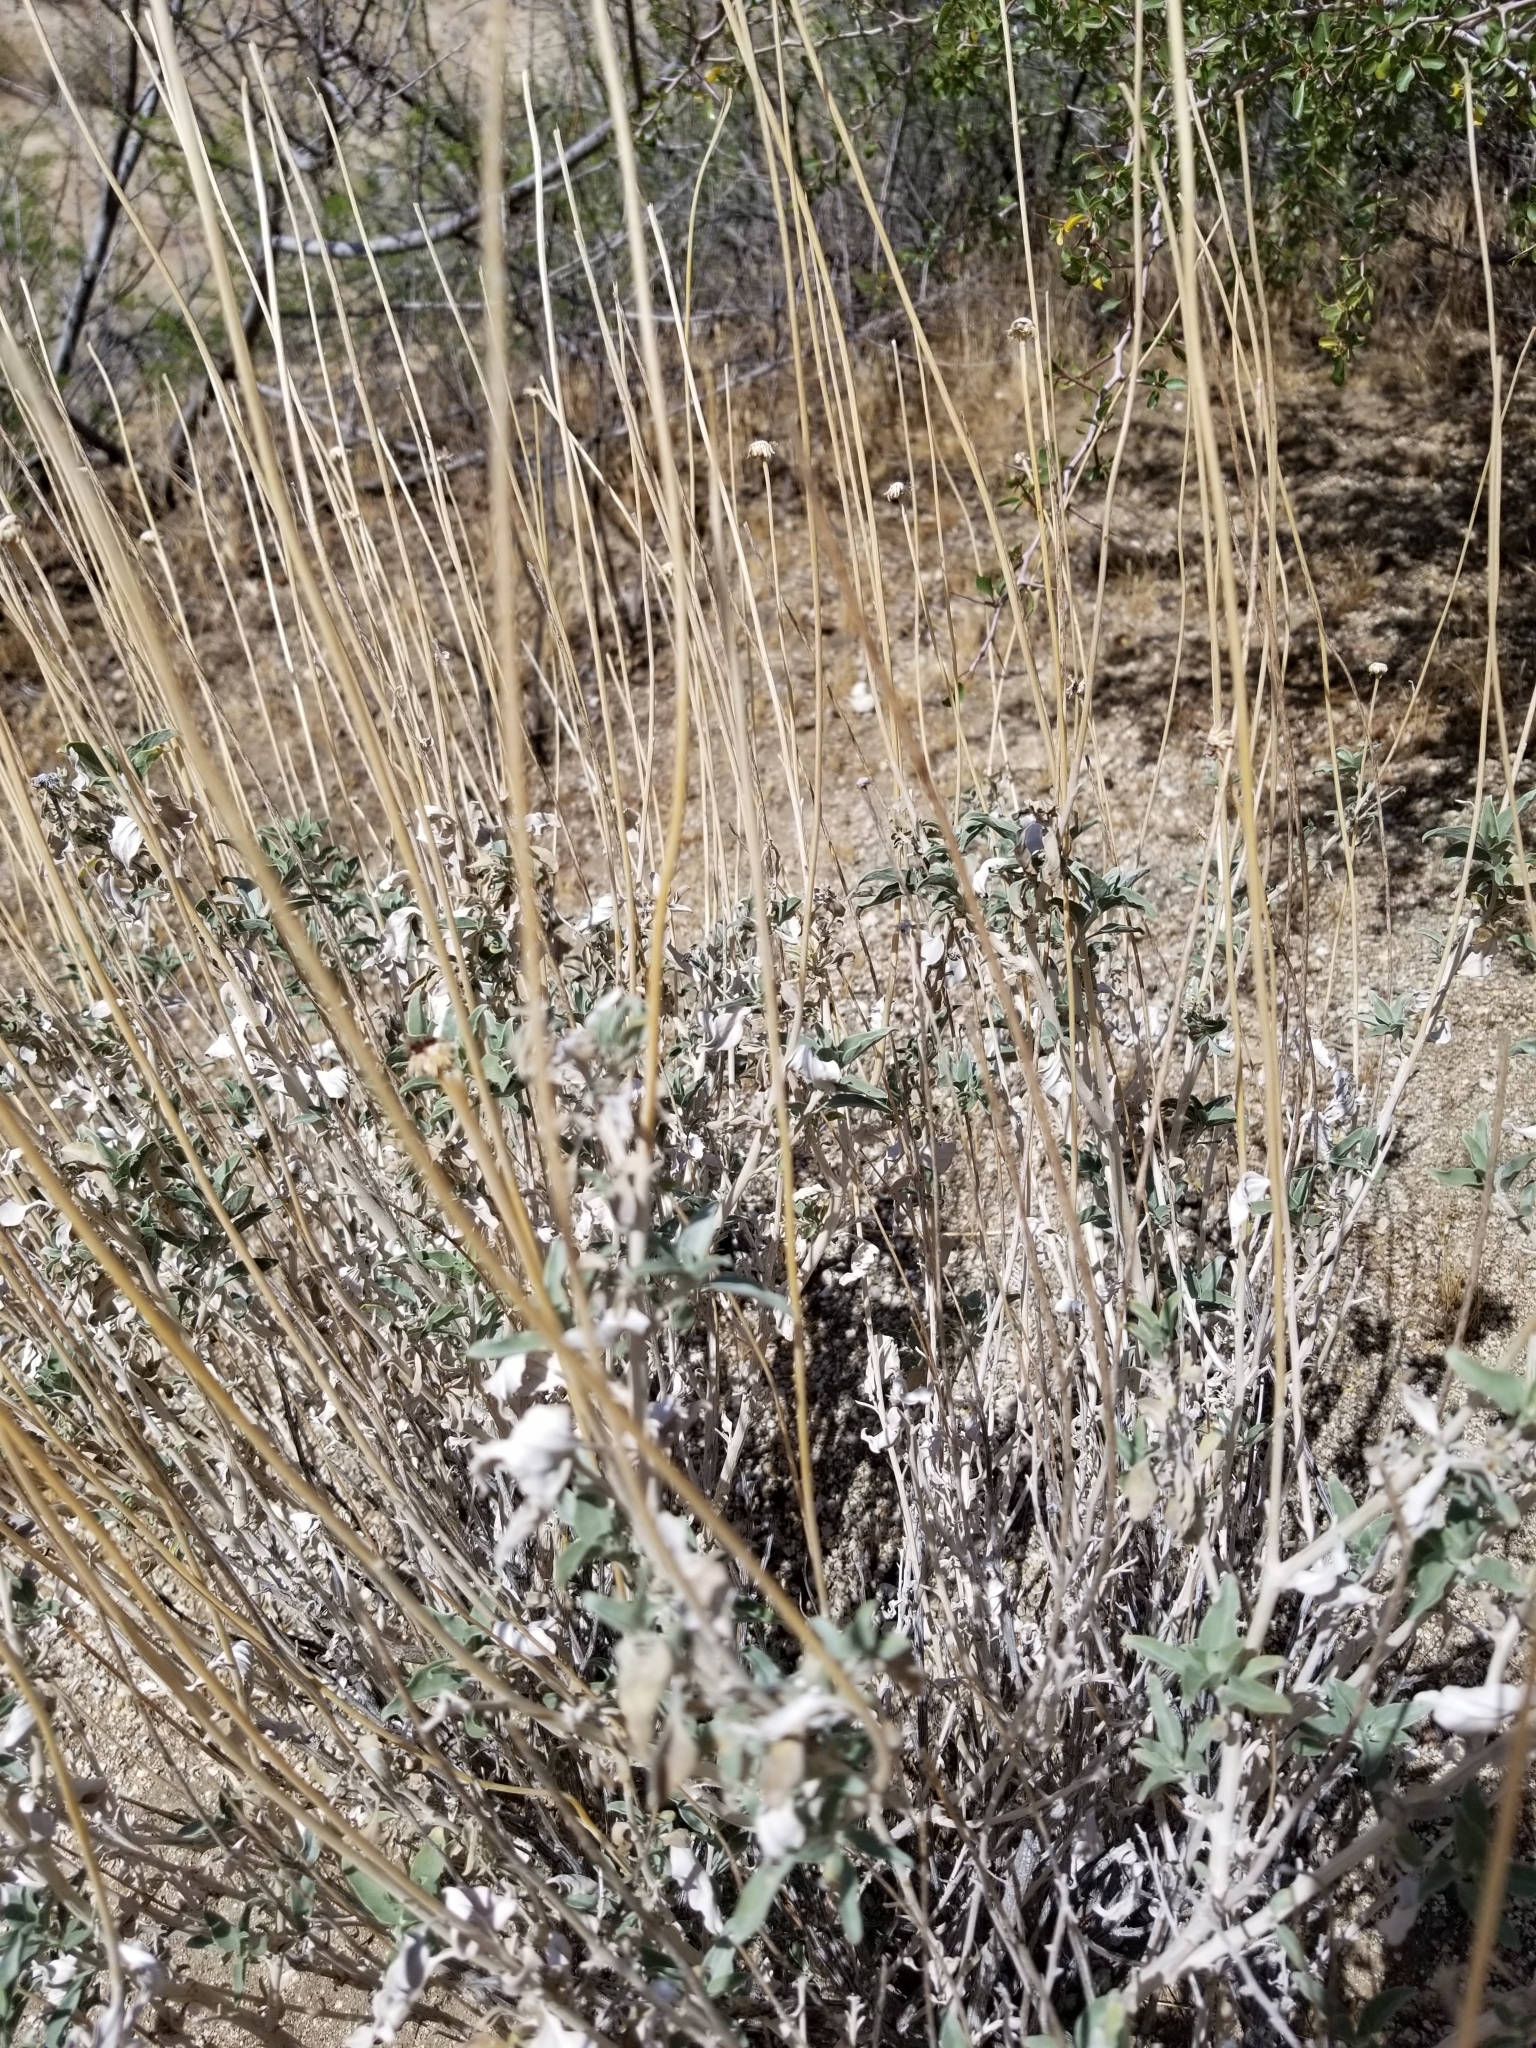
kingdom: Plantae
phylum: Tracheophyta
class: Magnoliopsida
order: Asterales
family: Asteraceae
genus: Encelia
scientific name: Encelia actoni
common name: Acton encelia
